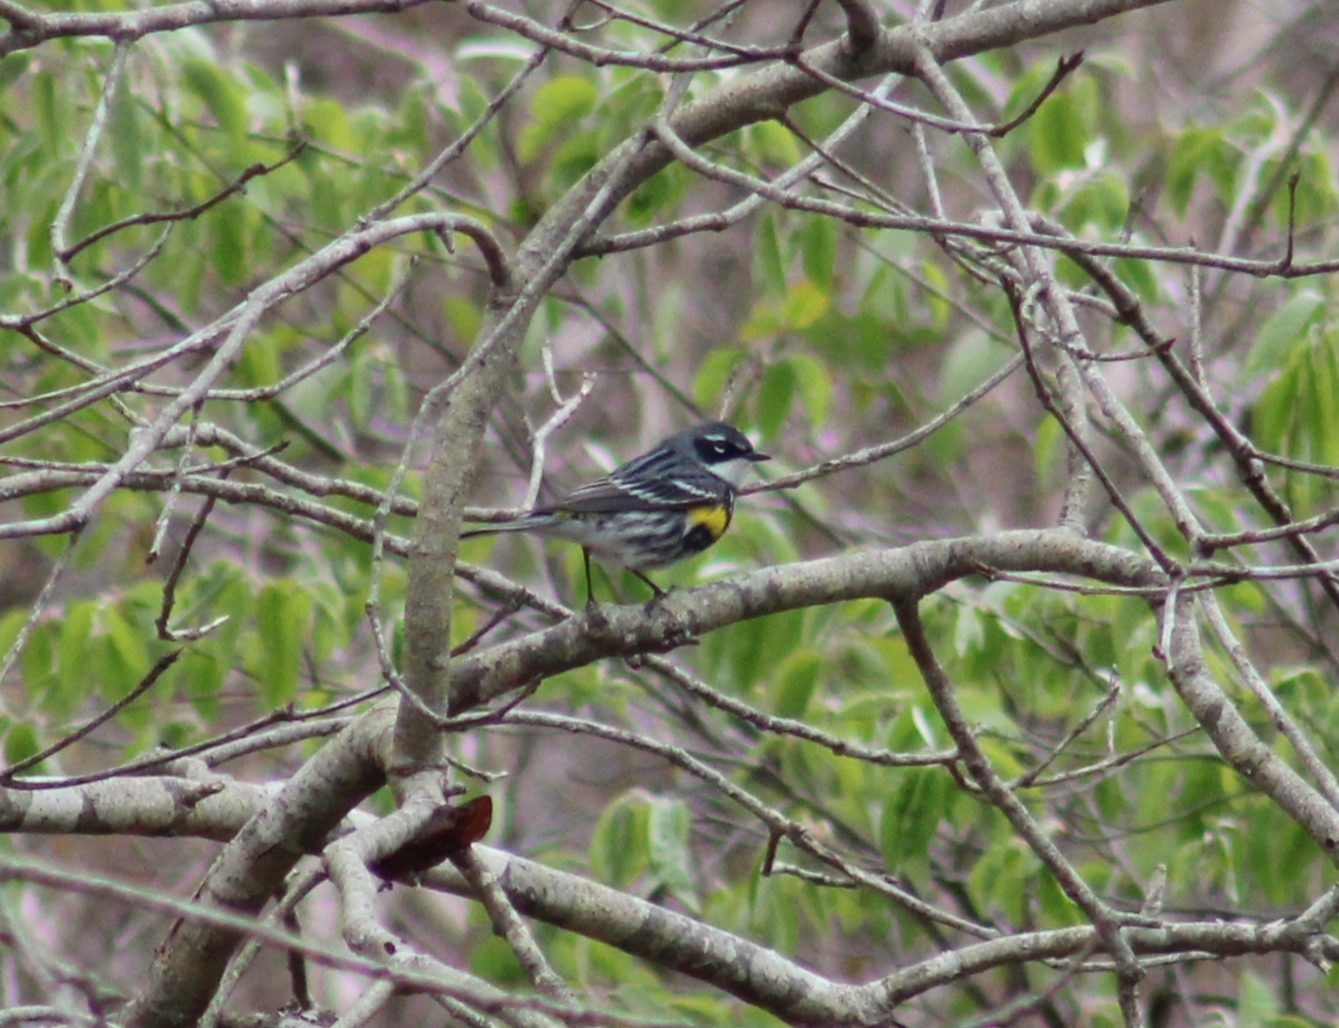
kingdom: Animalia
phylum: Chordata
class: Aves
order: Passeriformes
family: Parulidae
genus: Setophaga
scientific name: Setophaga coronata
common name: Myrtle warbler
